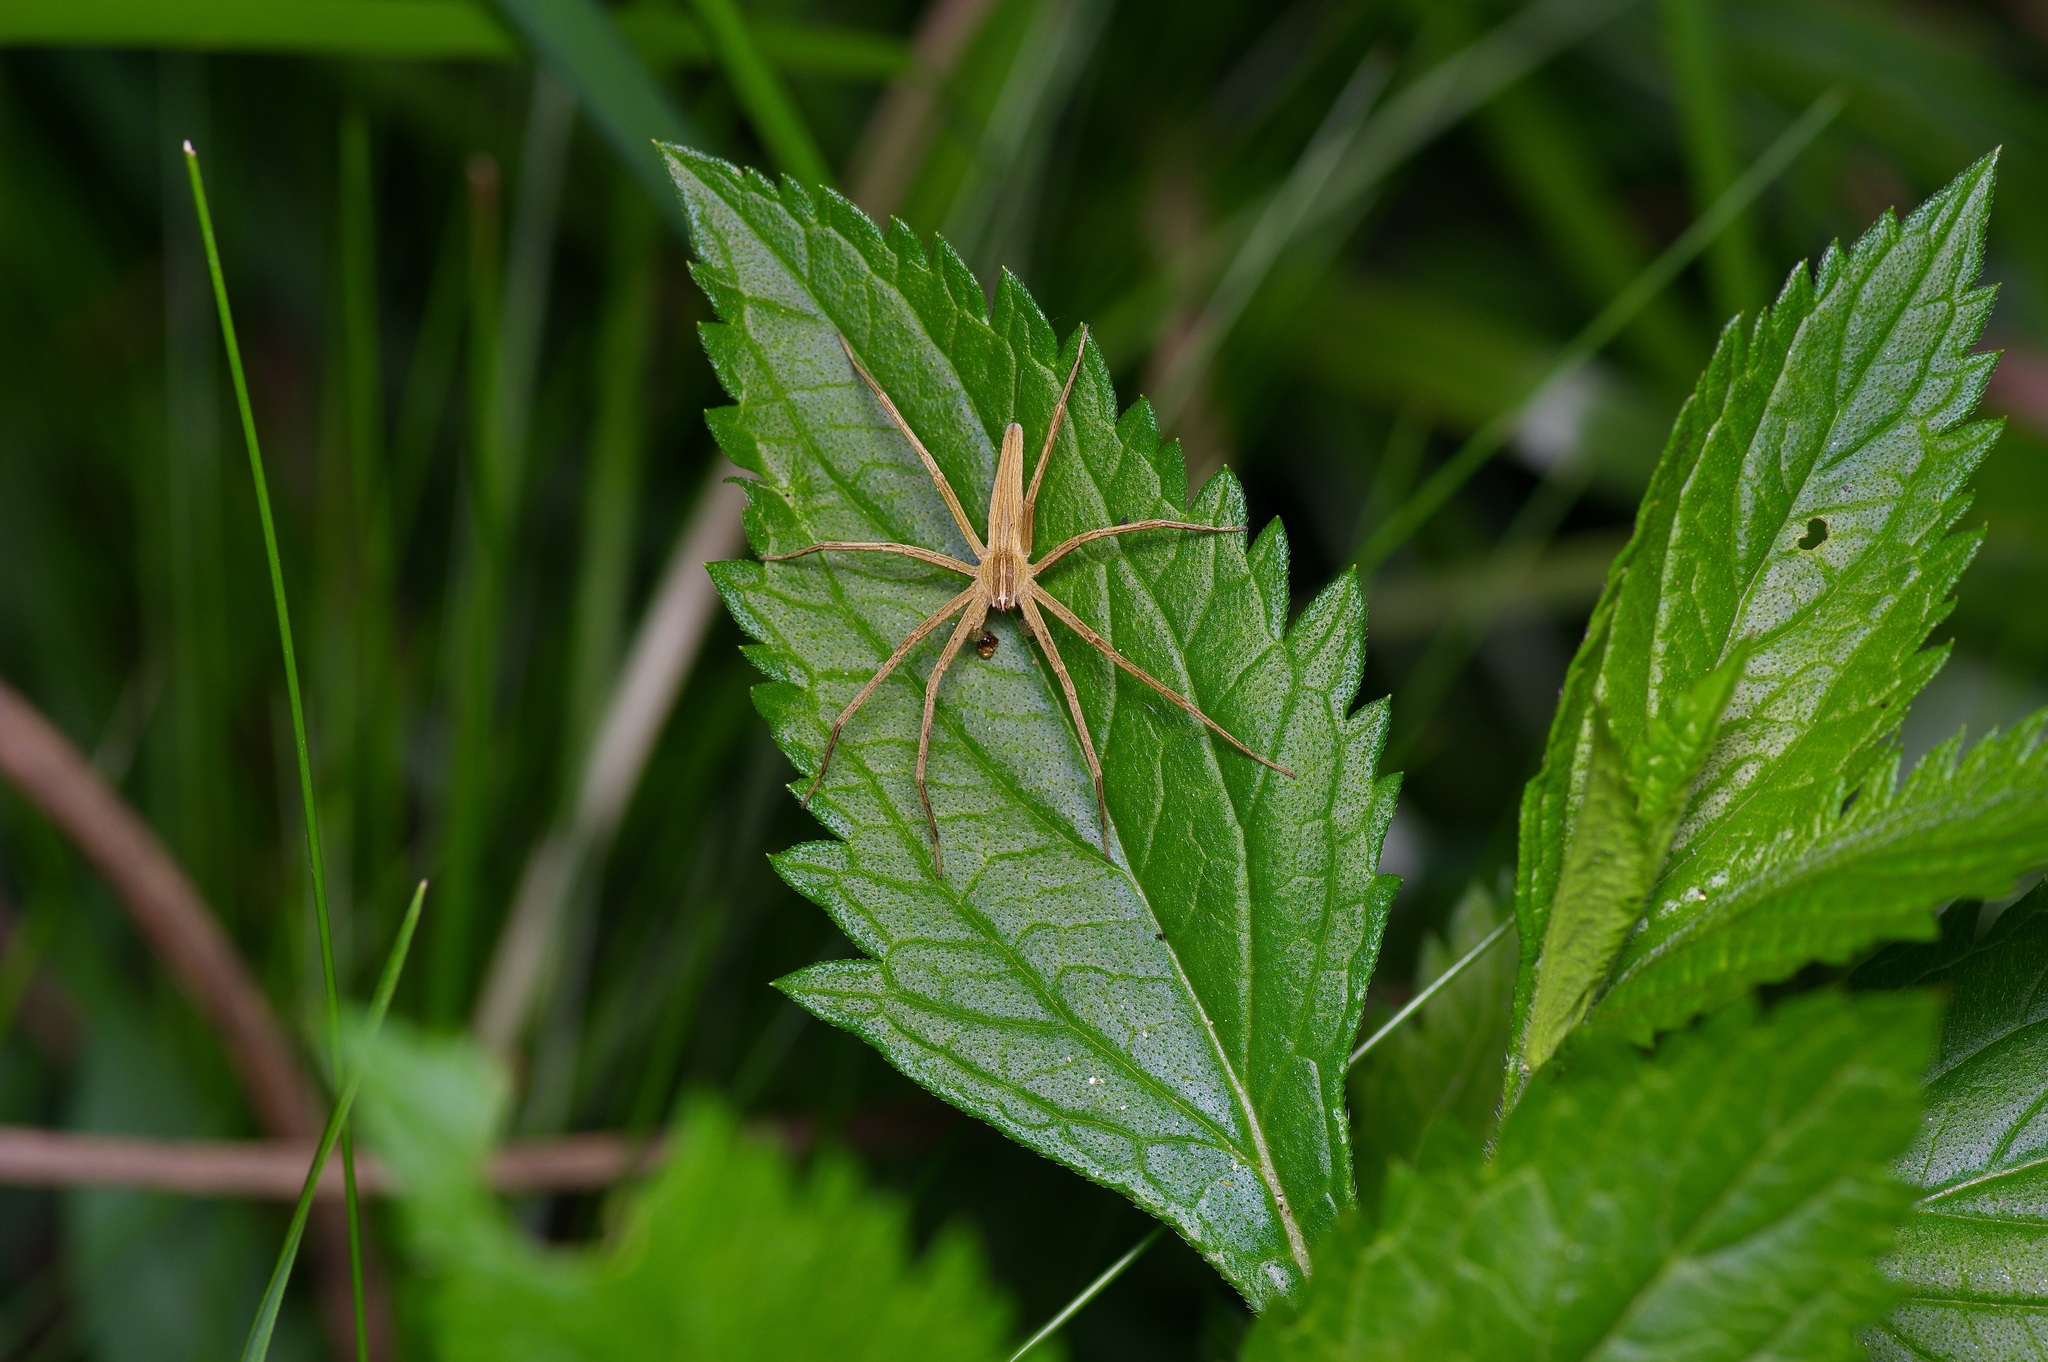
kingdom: Animalia
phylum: Arthropoda
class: Arachnida
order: Araneae
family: Pisauridae
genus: Pisaurina
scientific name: Pisaurina dubia
